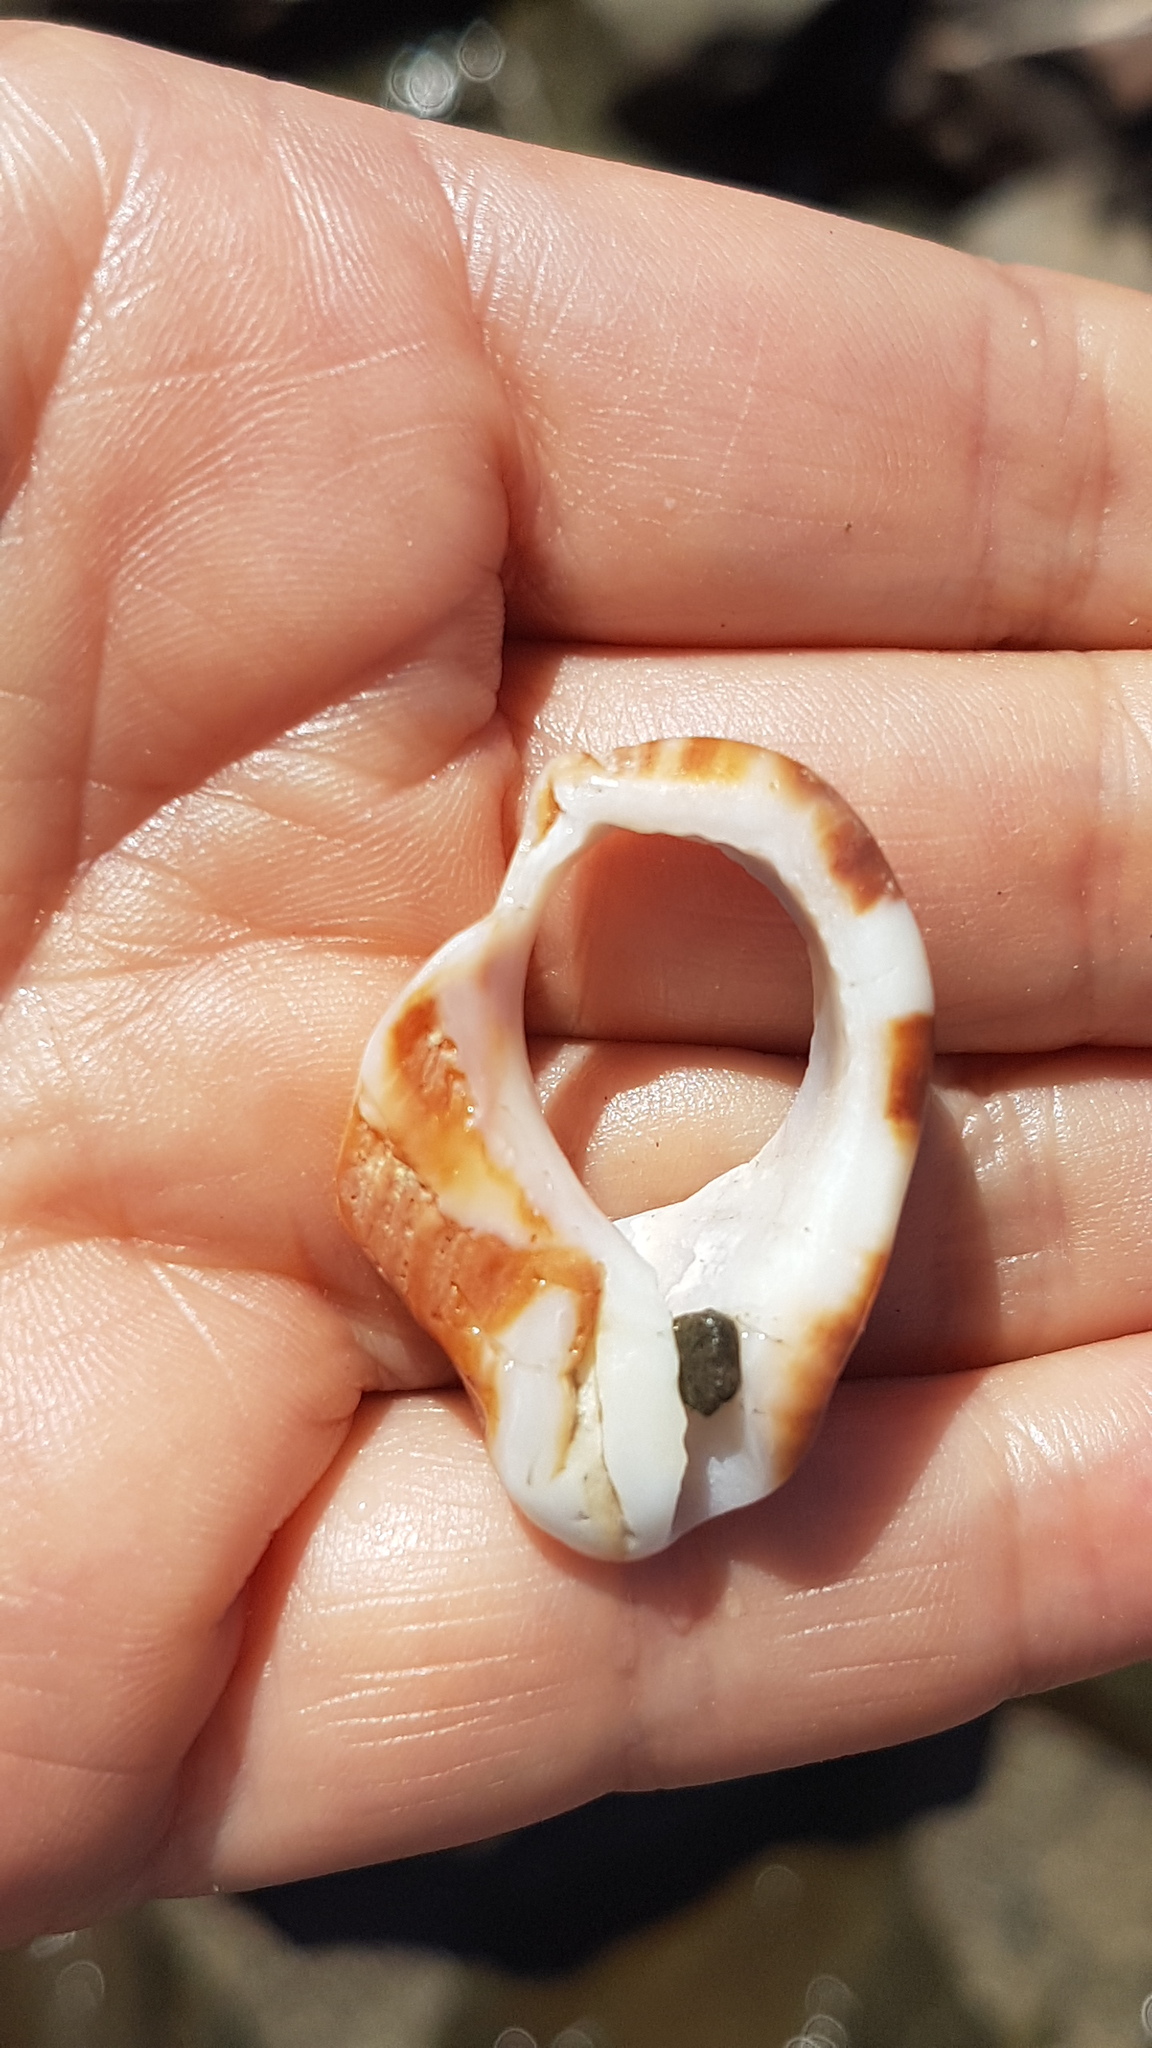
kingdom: Animalia
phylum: Mollusca
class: Gastropoda
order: Neogastropoda
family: Muricidae
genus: Hexaplex
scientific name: Hexaplex trunculus
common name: Banded dye-murex
